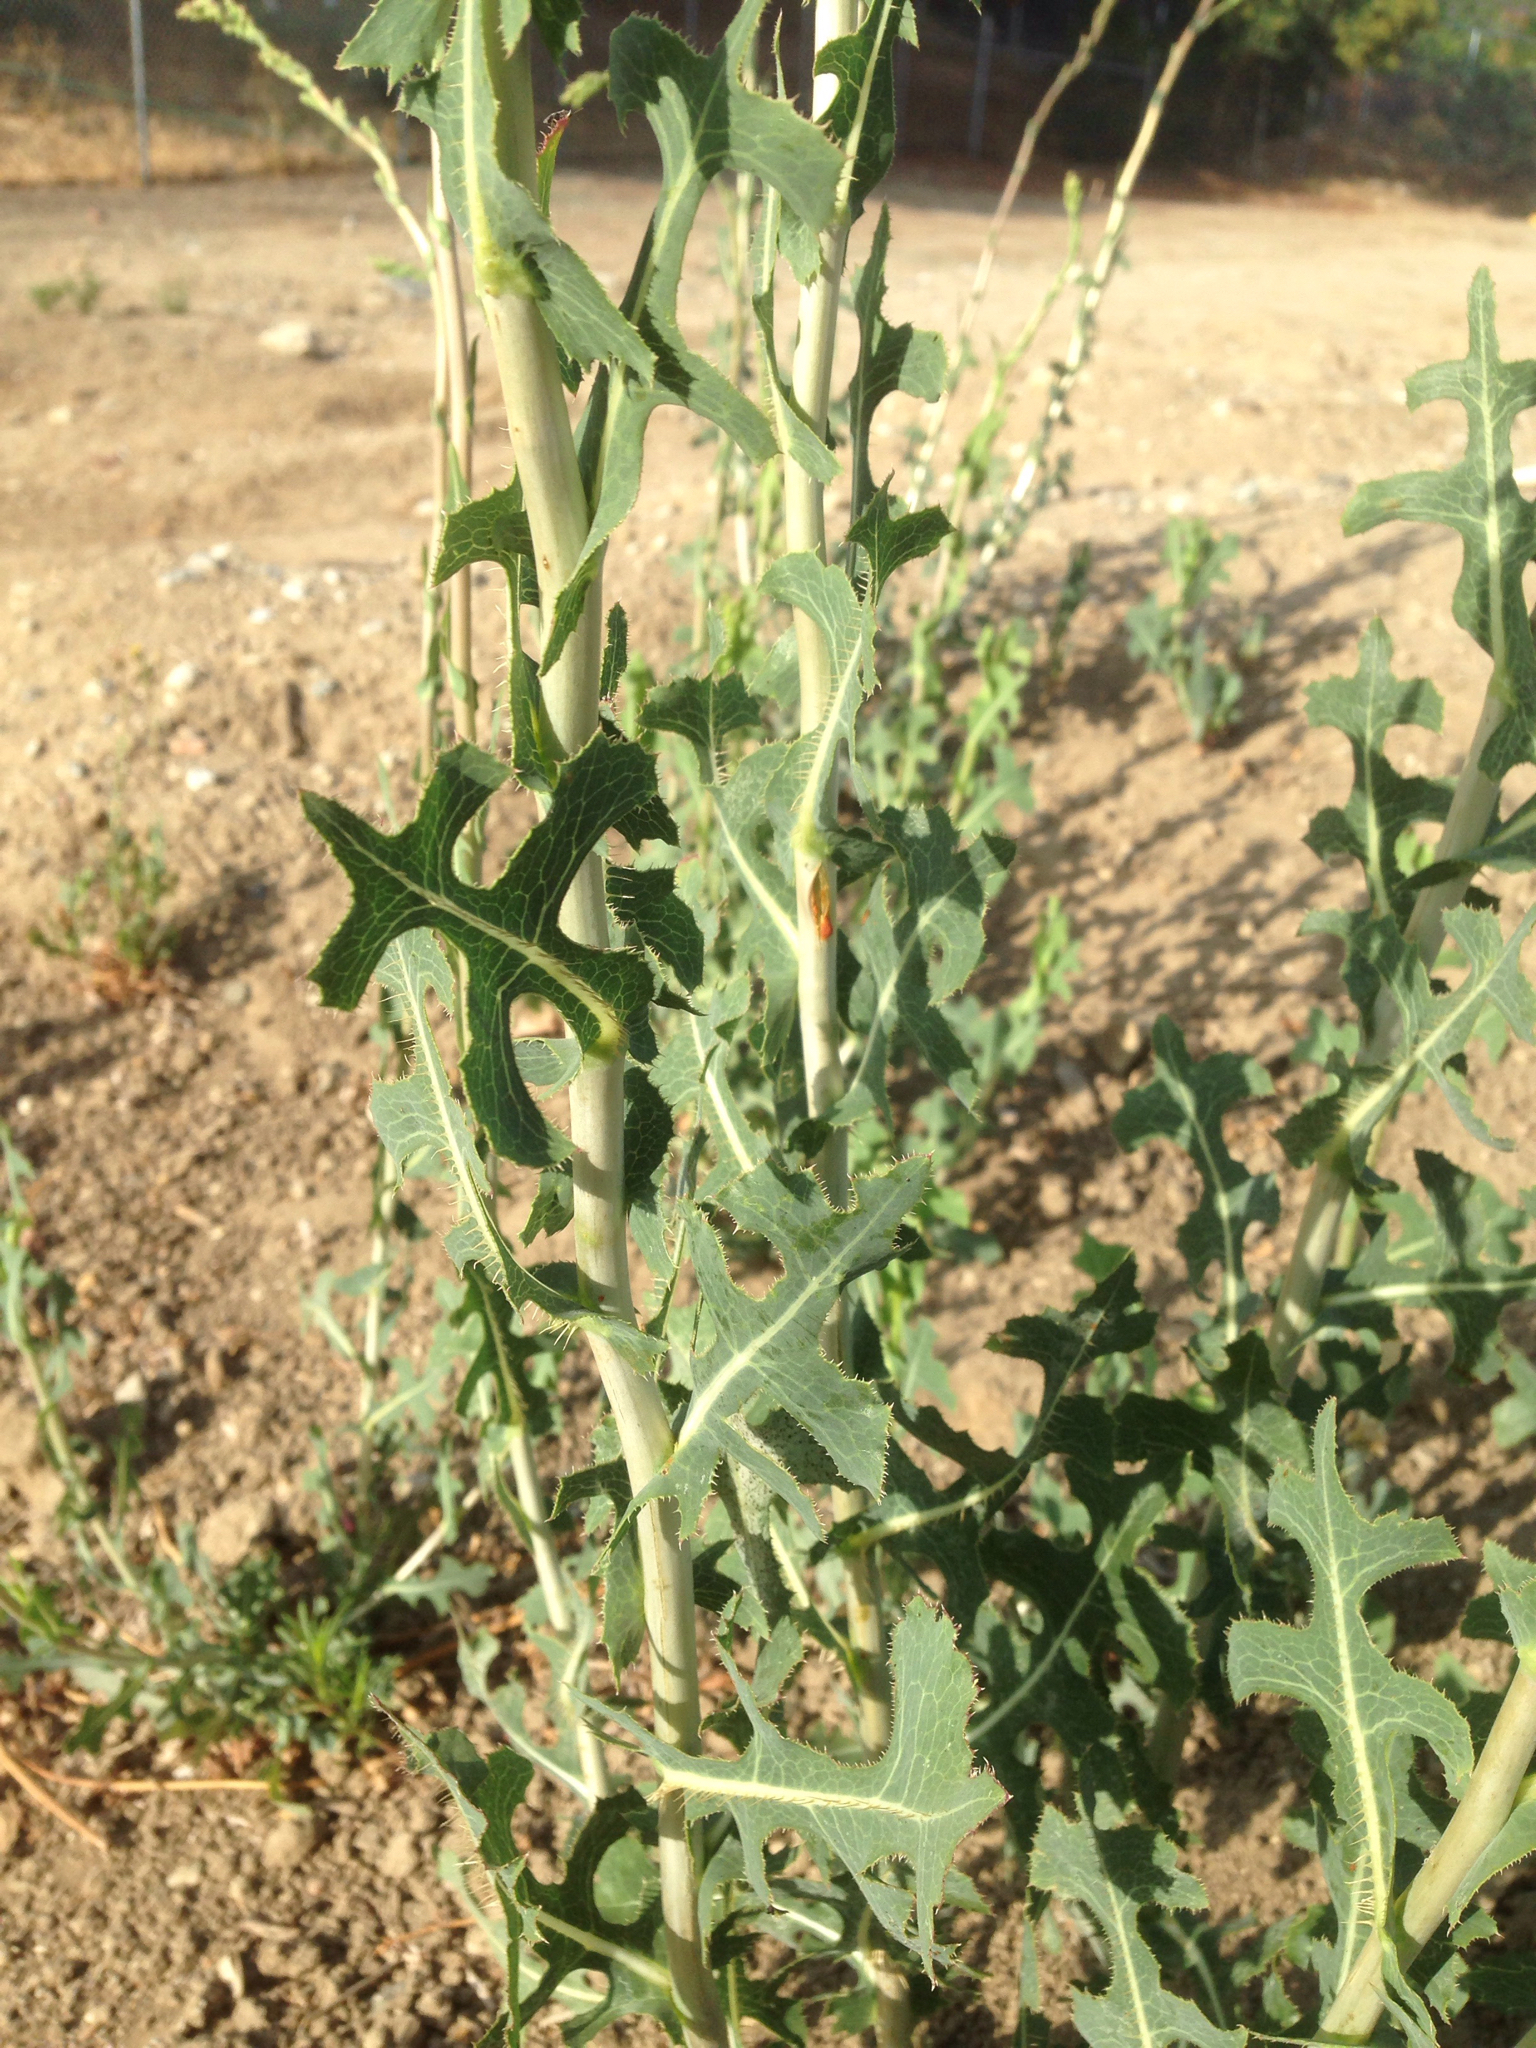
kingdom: Plantae
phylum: Tracheophyta
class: Magnoliopsida
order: Asterales
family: Asteraceae
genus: Lactuca
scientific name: Lactuca serriola
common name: Prickly lettuce
